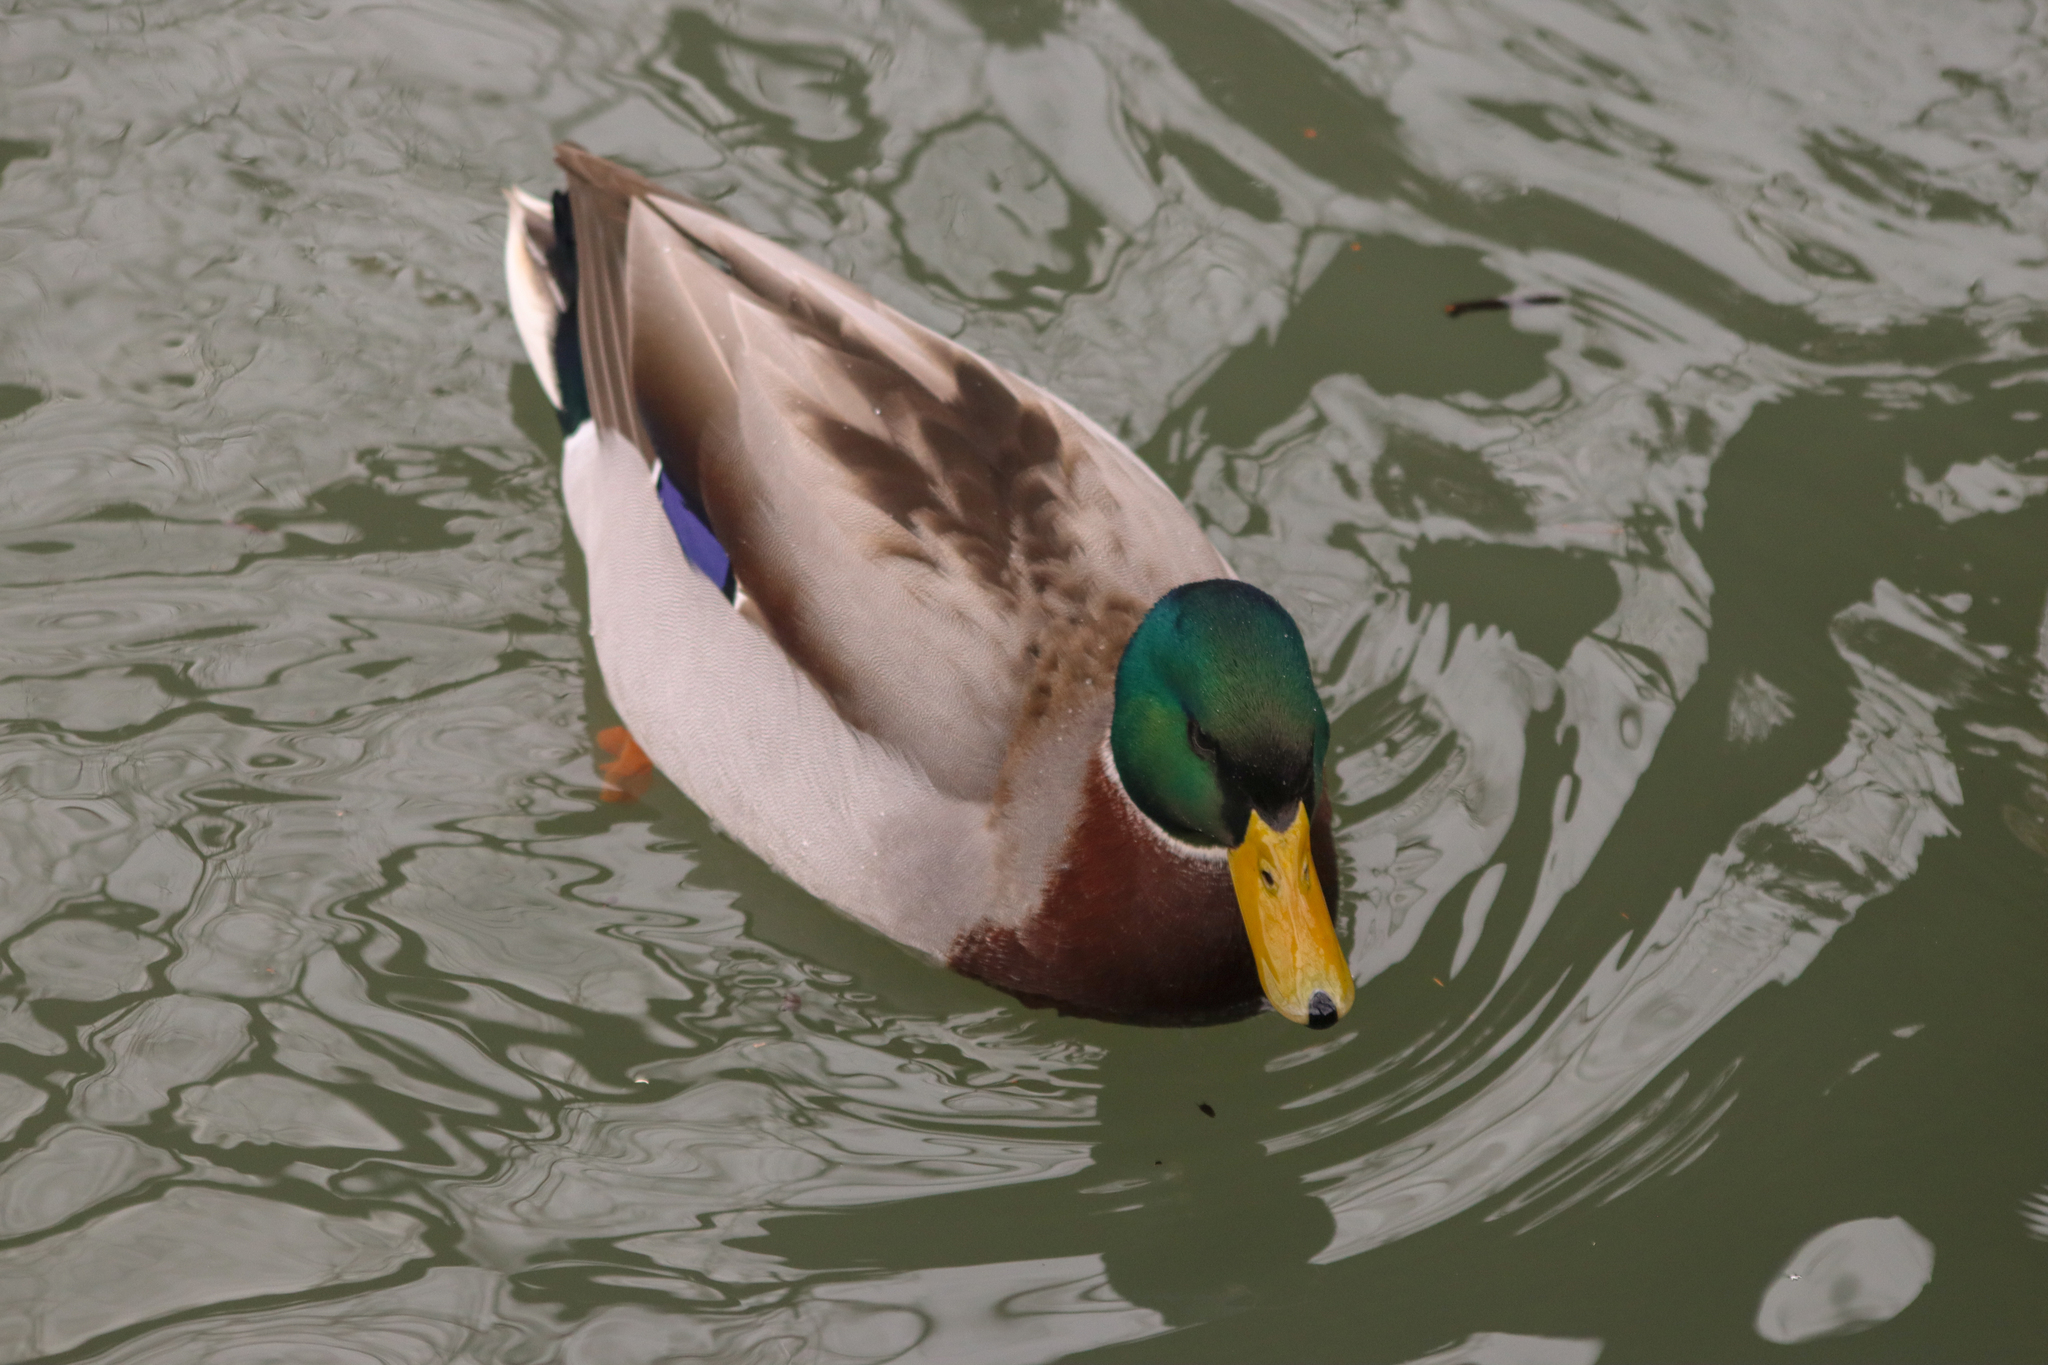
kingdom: Animalia
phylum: Chordata
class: Aves
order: Anseriformes
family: Anatidae
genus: Anas
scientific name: Anas platyrhynchos
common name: Mallard
